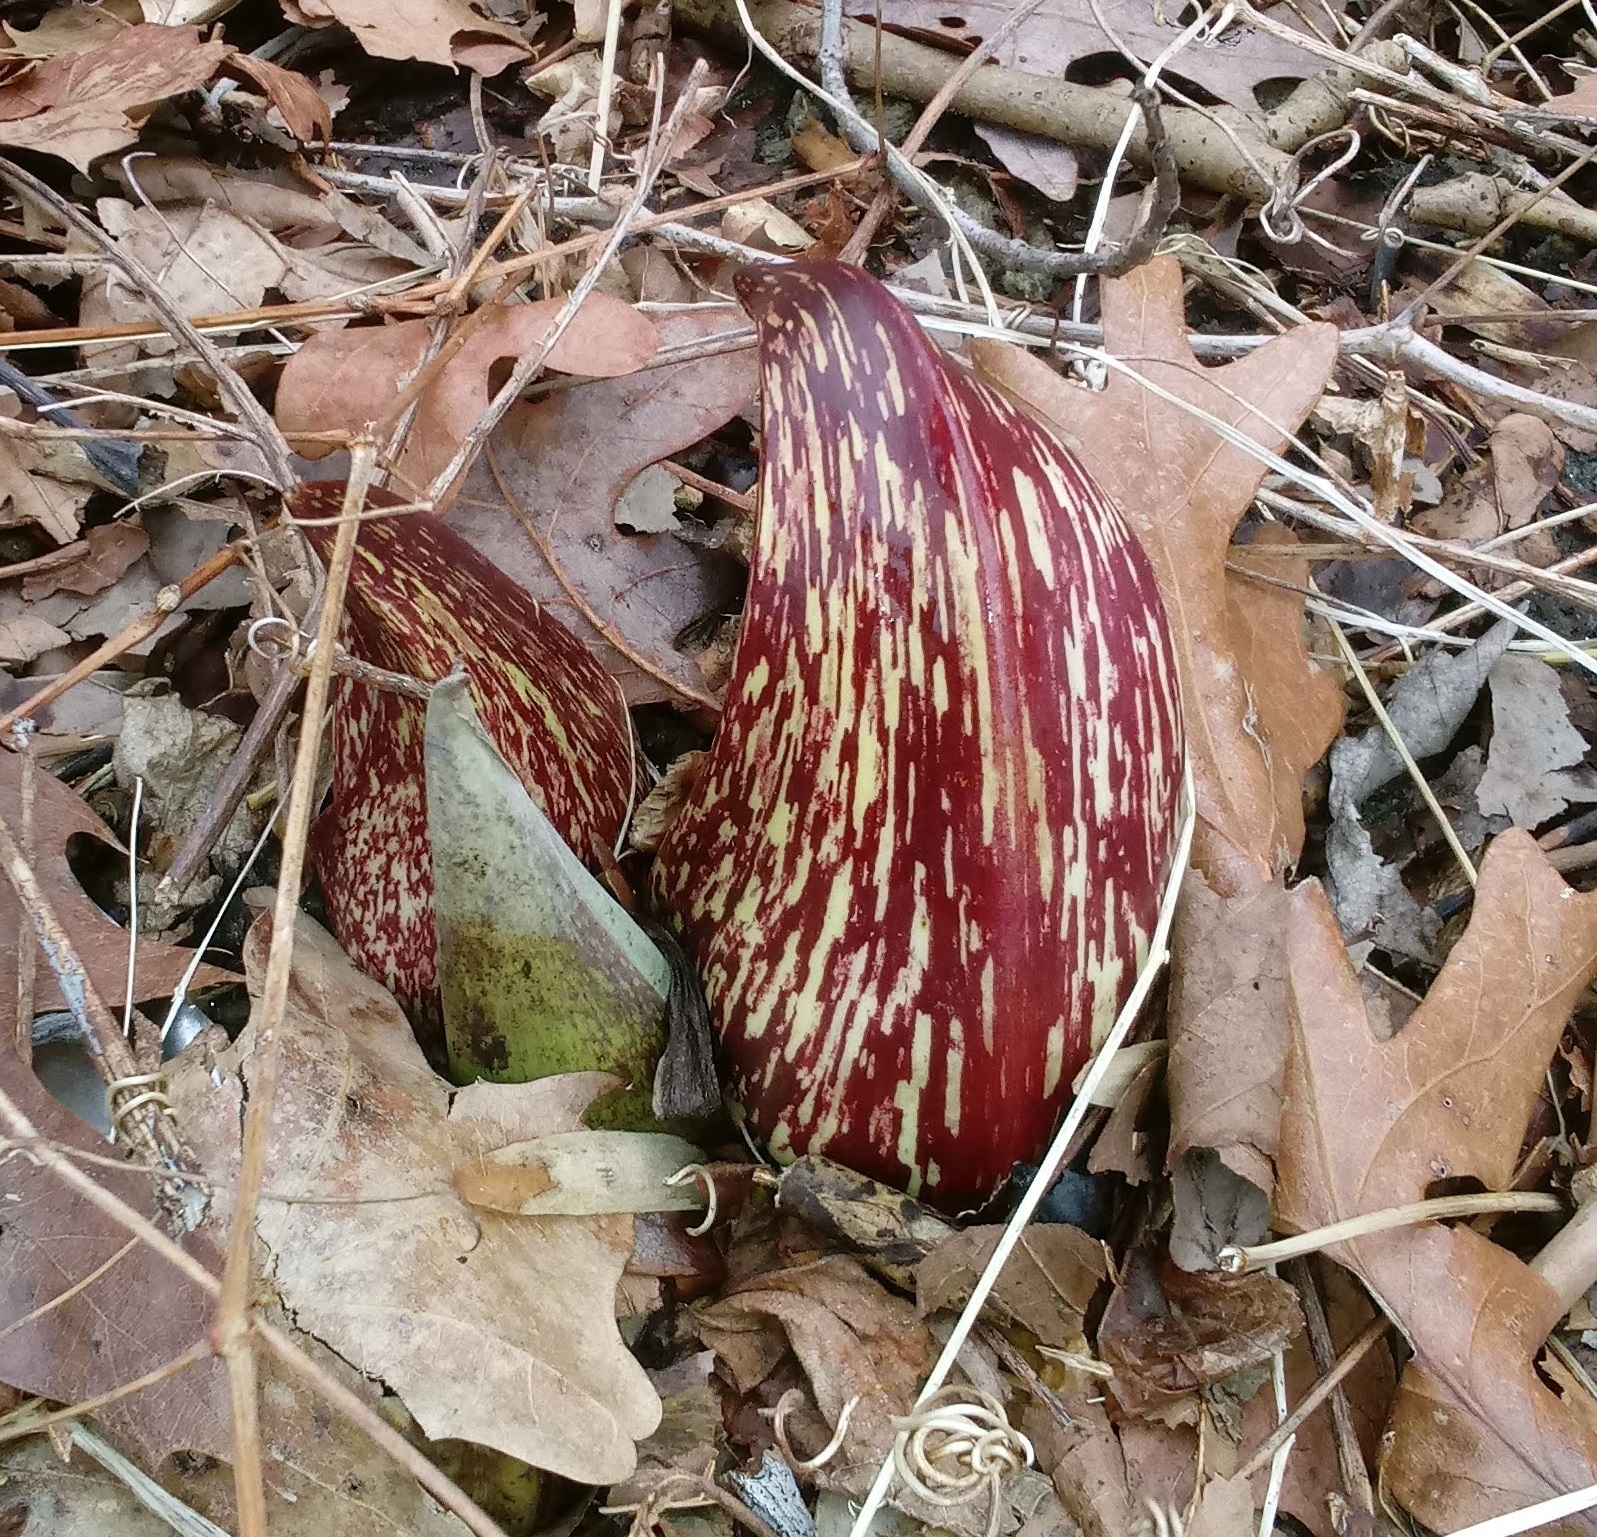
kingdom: Plantae
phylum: Tracheophyta
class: Liliopsida
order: Alismatales
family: Araceae
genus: Symplocarpus
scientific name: Symplocarpus foetidus
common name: Eastern skunk cabbage
